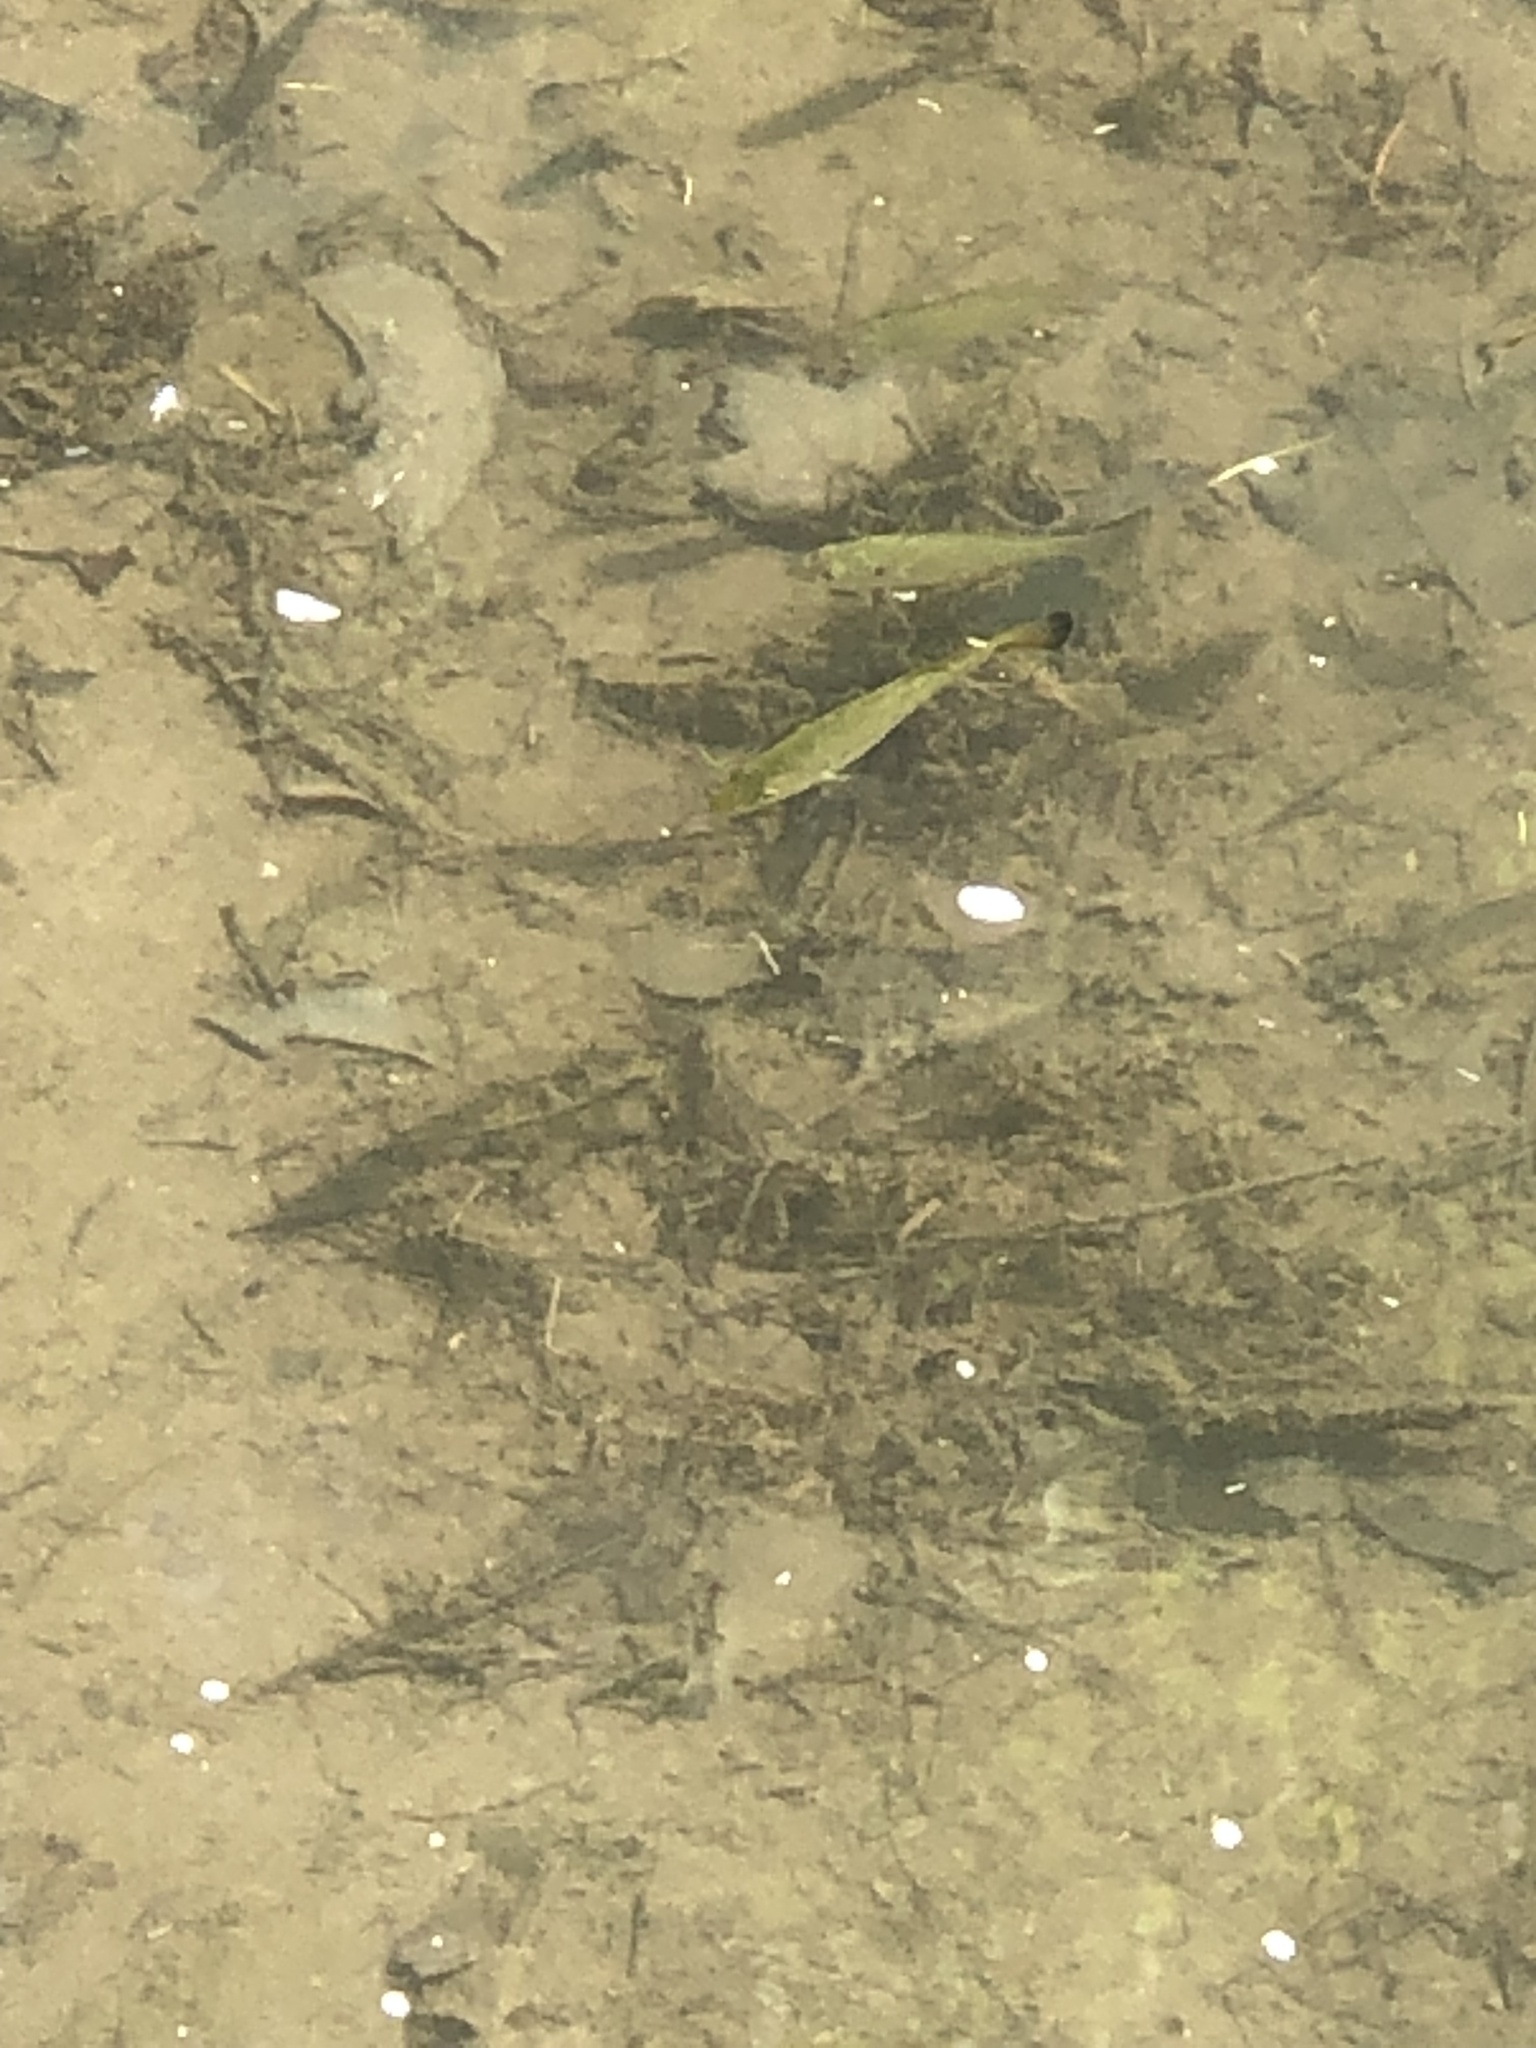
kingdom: Animalia
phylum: Chordata
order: Perciformes
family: Centrarchidae
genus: Micropterus
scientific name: Micropterus
